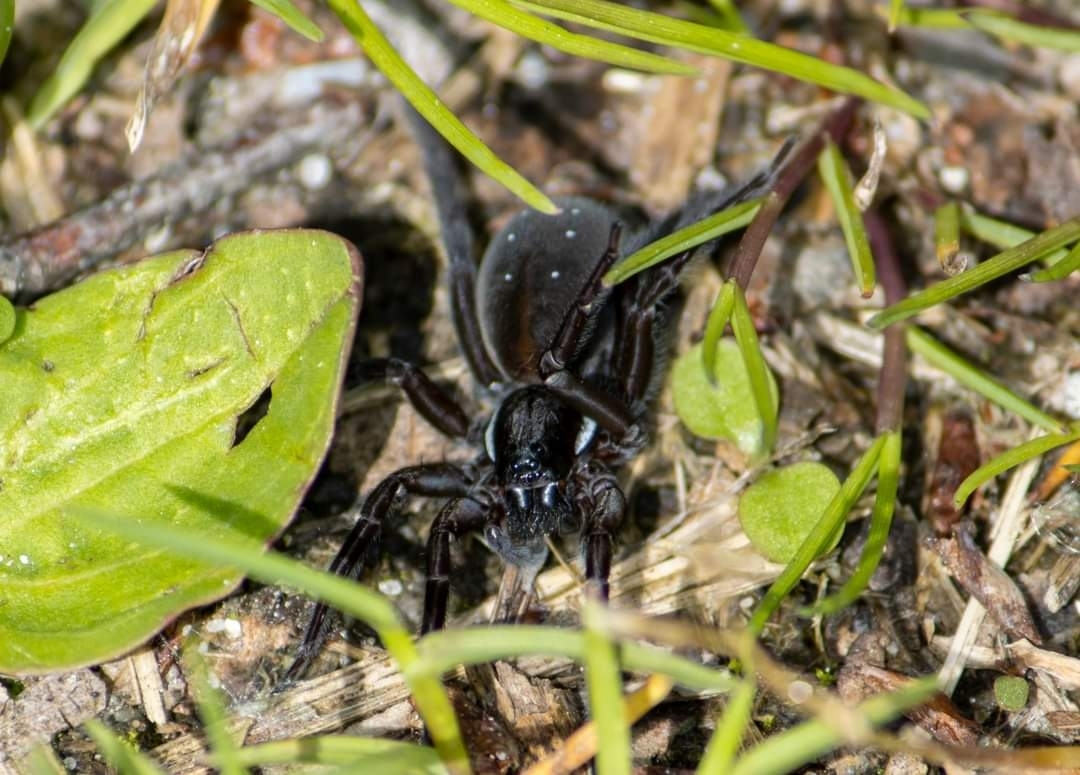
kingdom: Animalia
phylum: Arthropoda
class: Arachnida
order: Araneae
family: Lycosidae
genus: Pirata
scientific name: Pirata piscatorius
